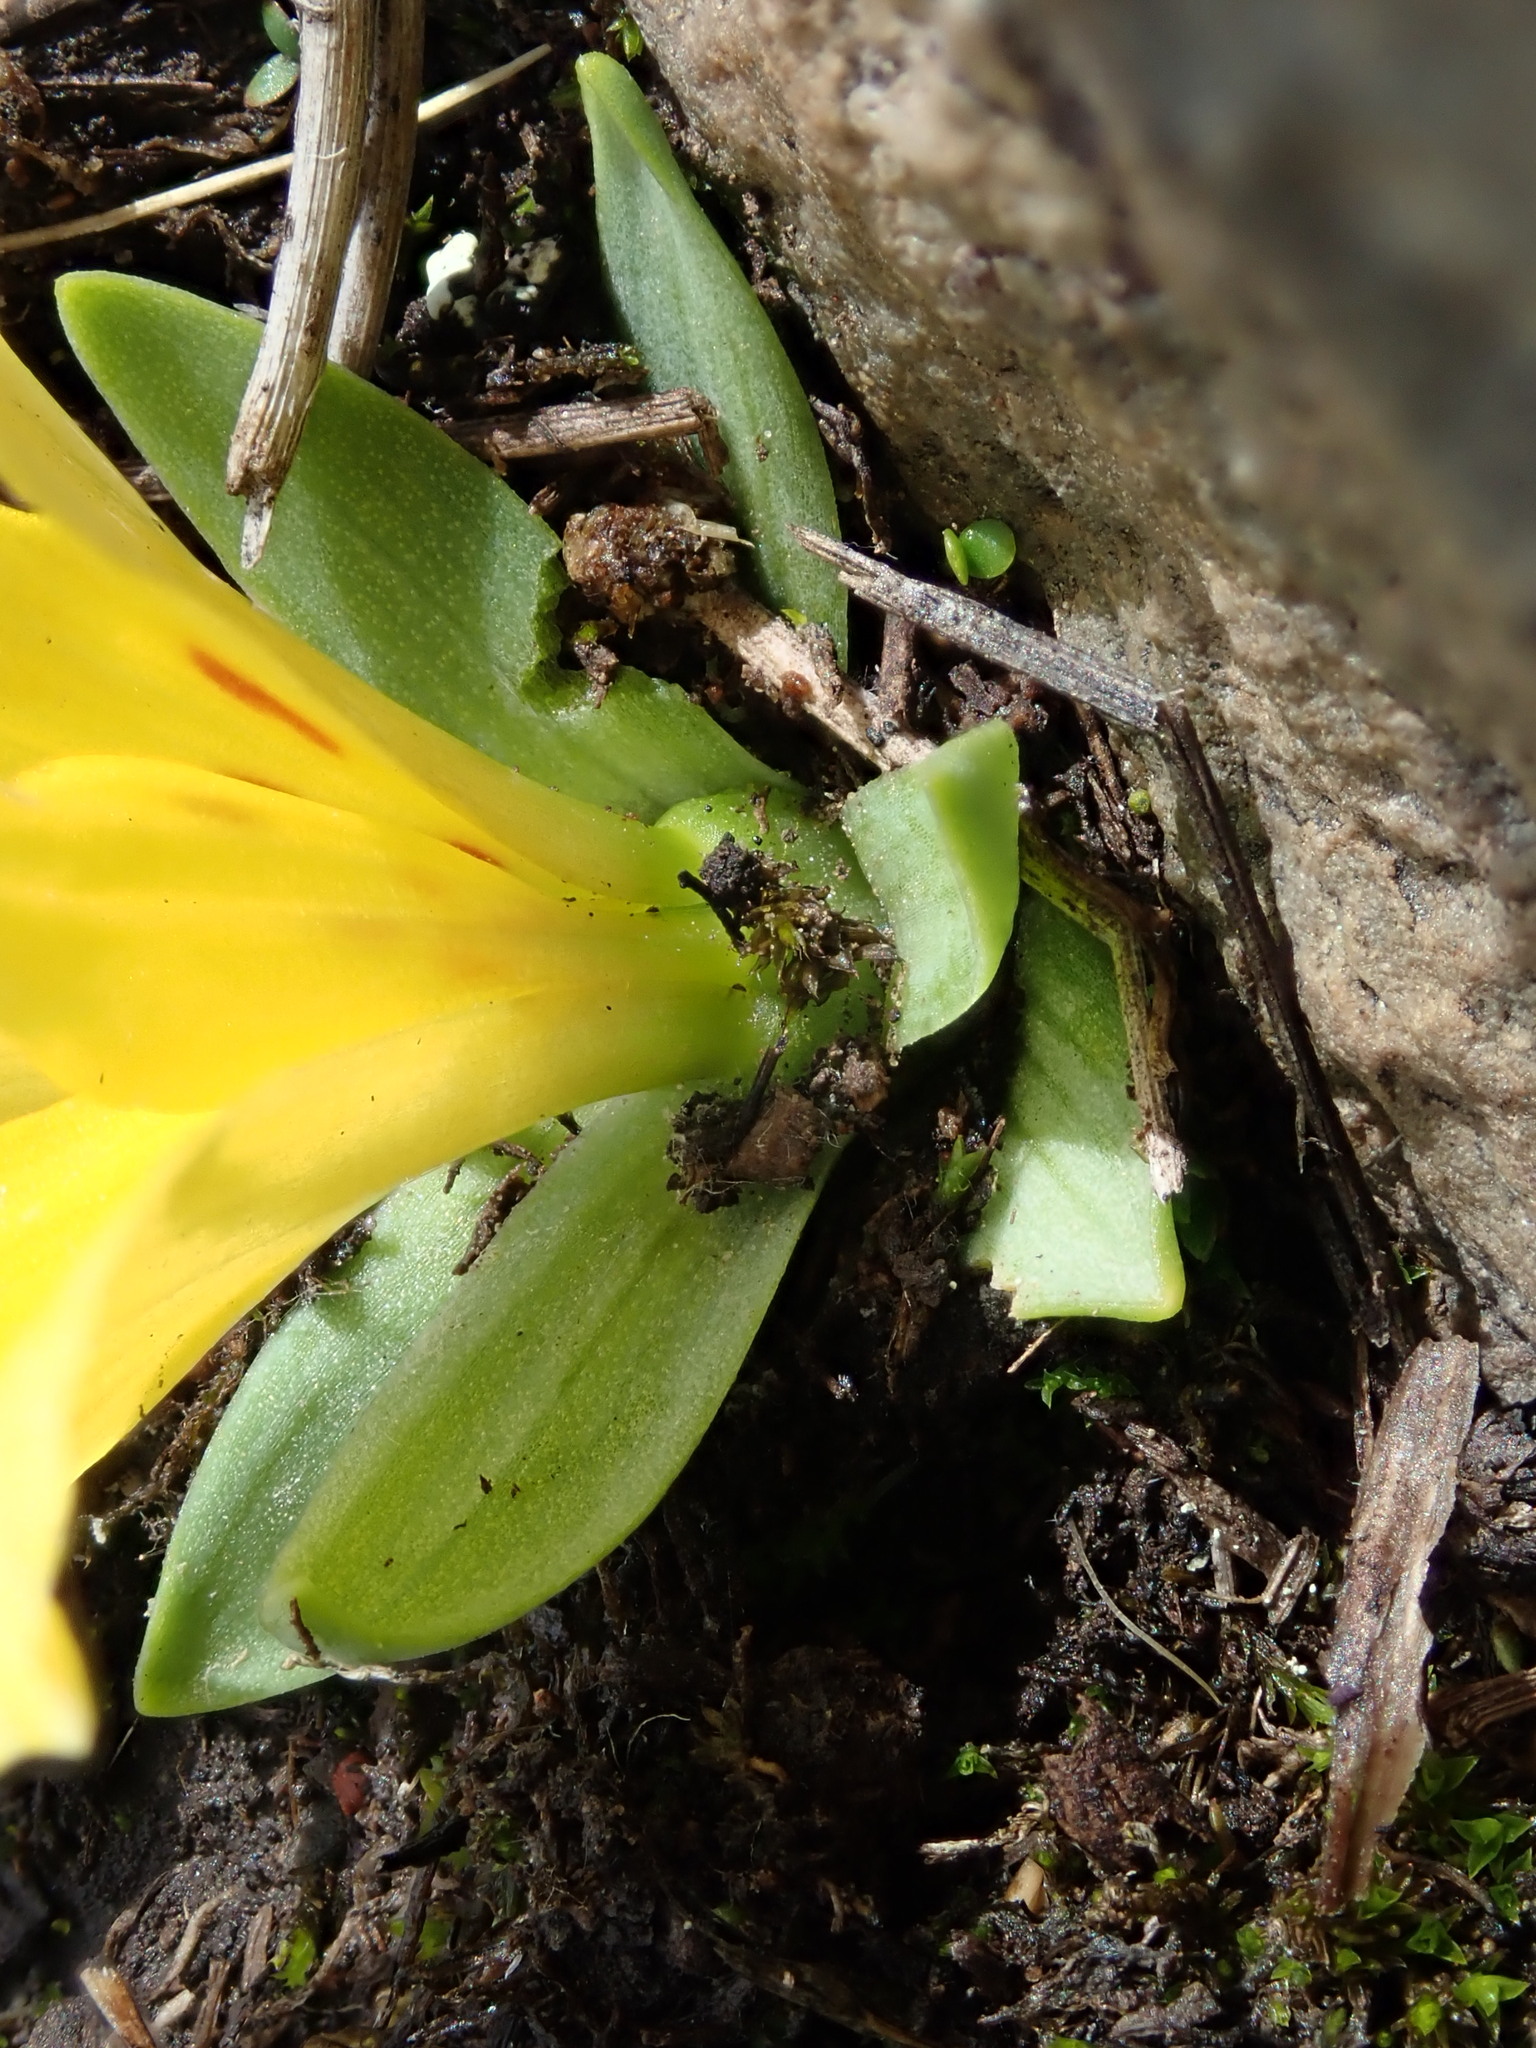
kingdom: Plantae
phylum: Tracheophyta
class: Liliopsida
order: Liliales
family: Alstroemeriaceae
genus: Alstroemeria
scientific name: Alstroemeria pygmaea
